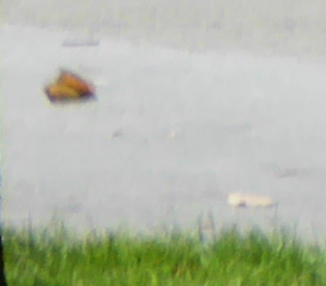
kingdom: Animalia
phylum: Arthropoda
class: Insecta
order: Lepidoptera
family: Nymphalidae
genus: Danaus
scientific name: Danaus plexippus
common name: Monarch
